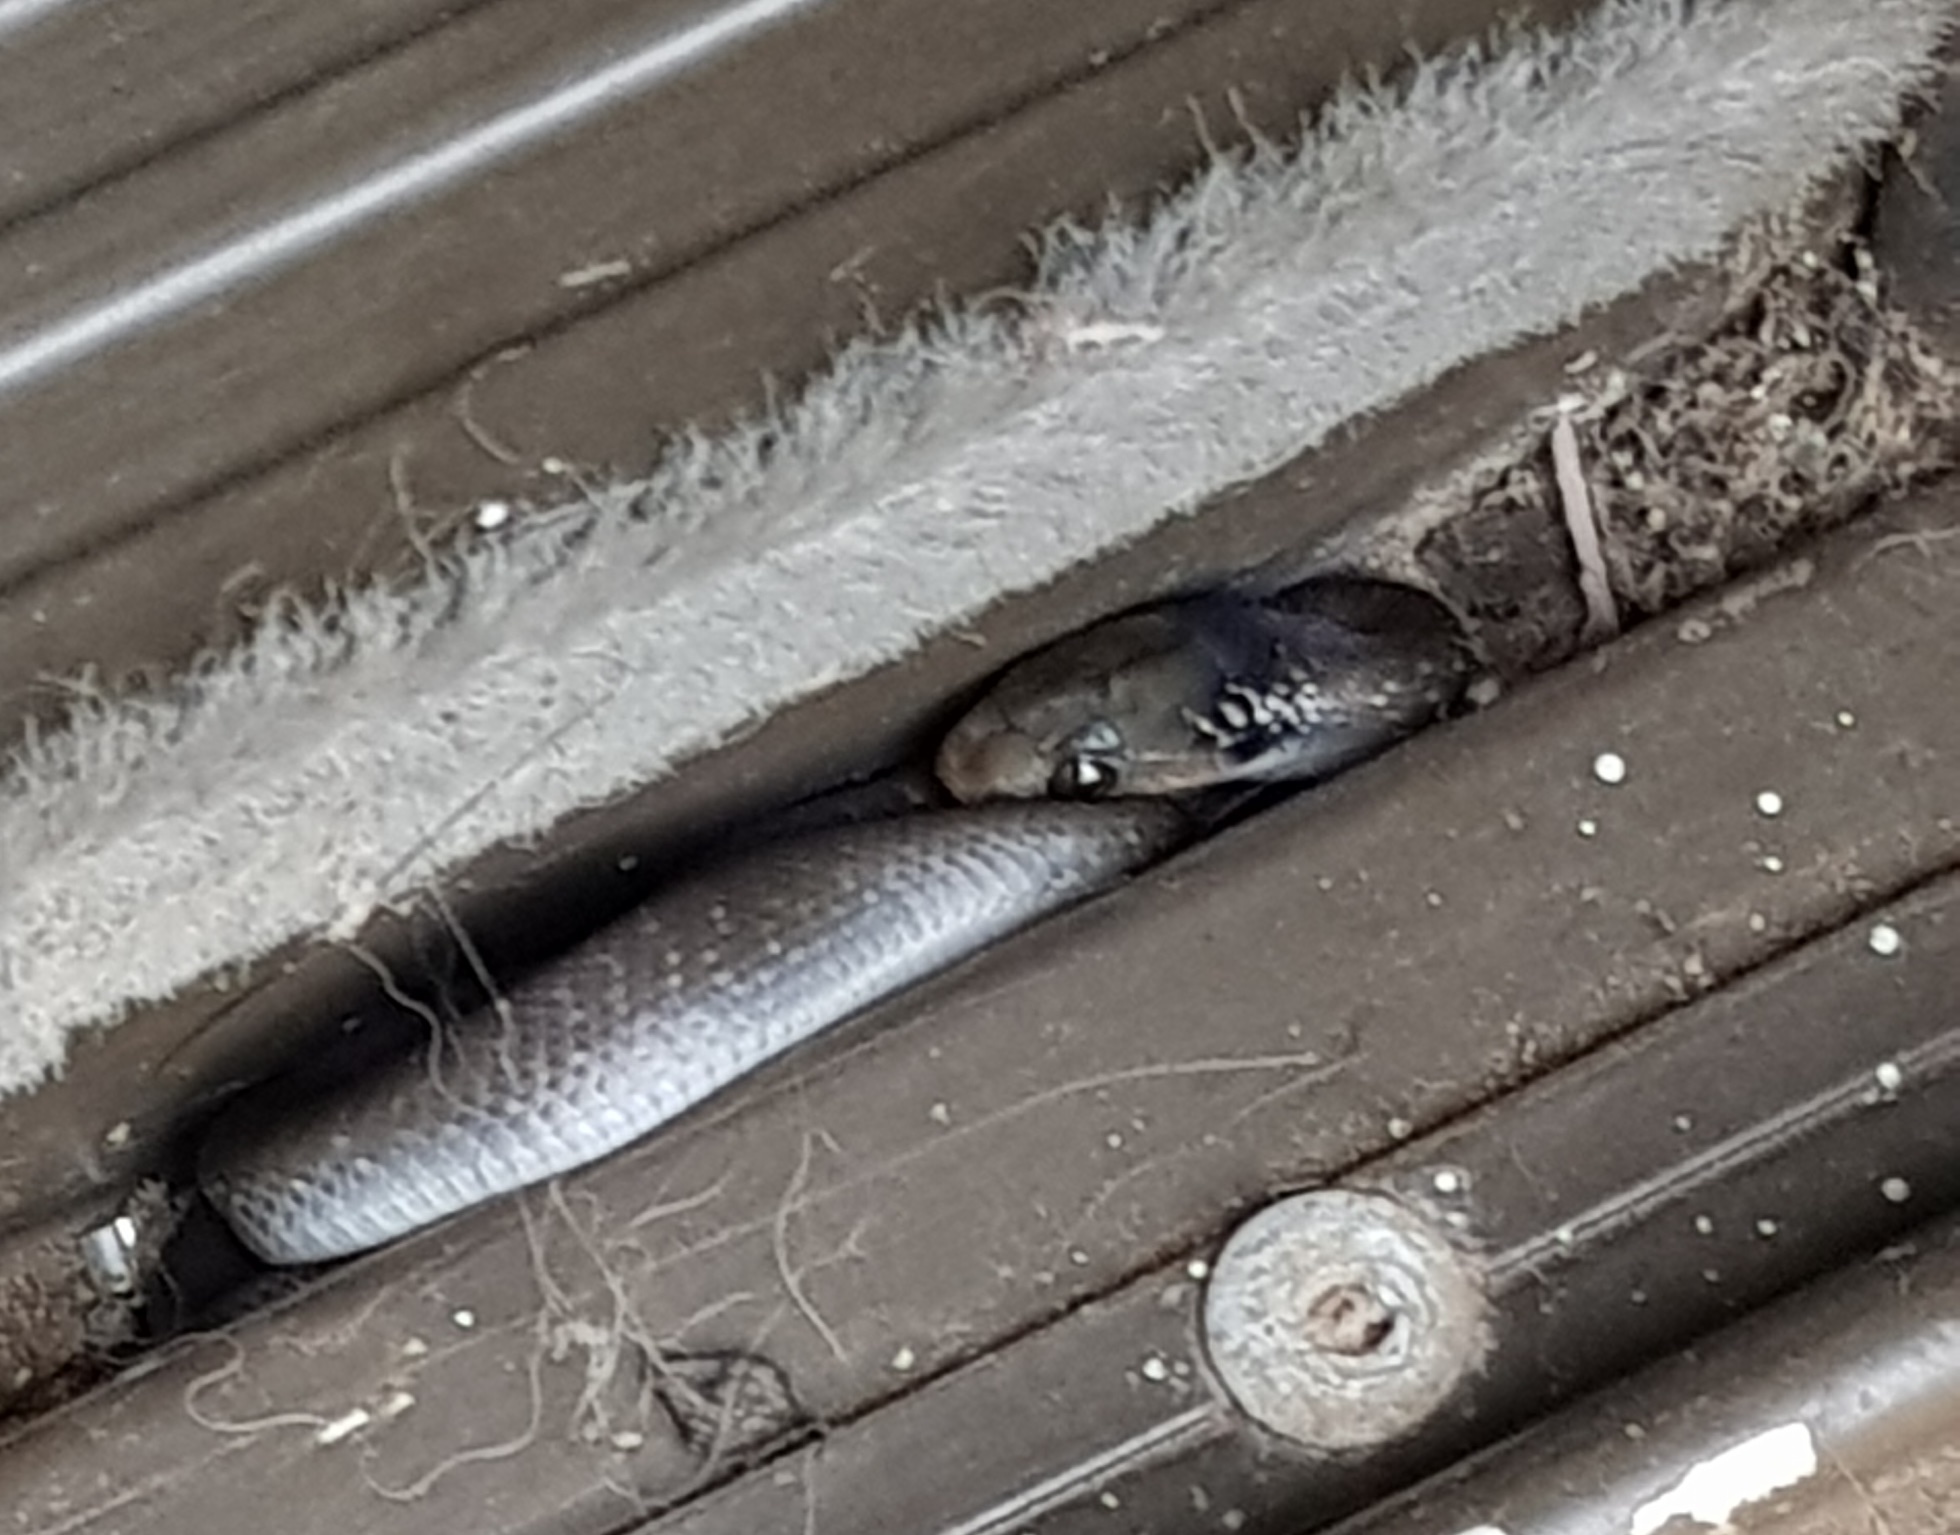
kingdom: Animalia
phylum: Chordata
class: Squamata
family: Colubridae
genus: Crotaphopeltis
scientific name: Crotaphopeltis hotamboeia
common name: Red-lipped snake
